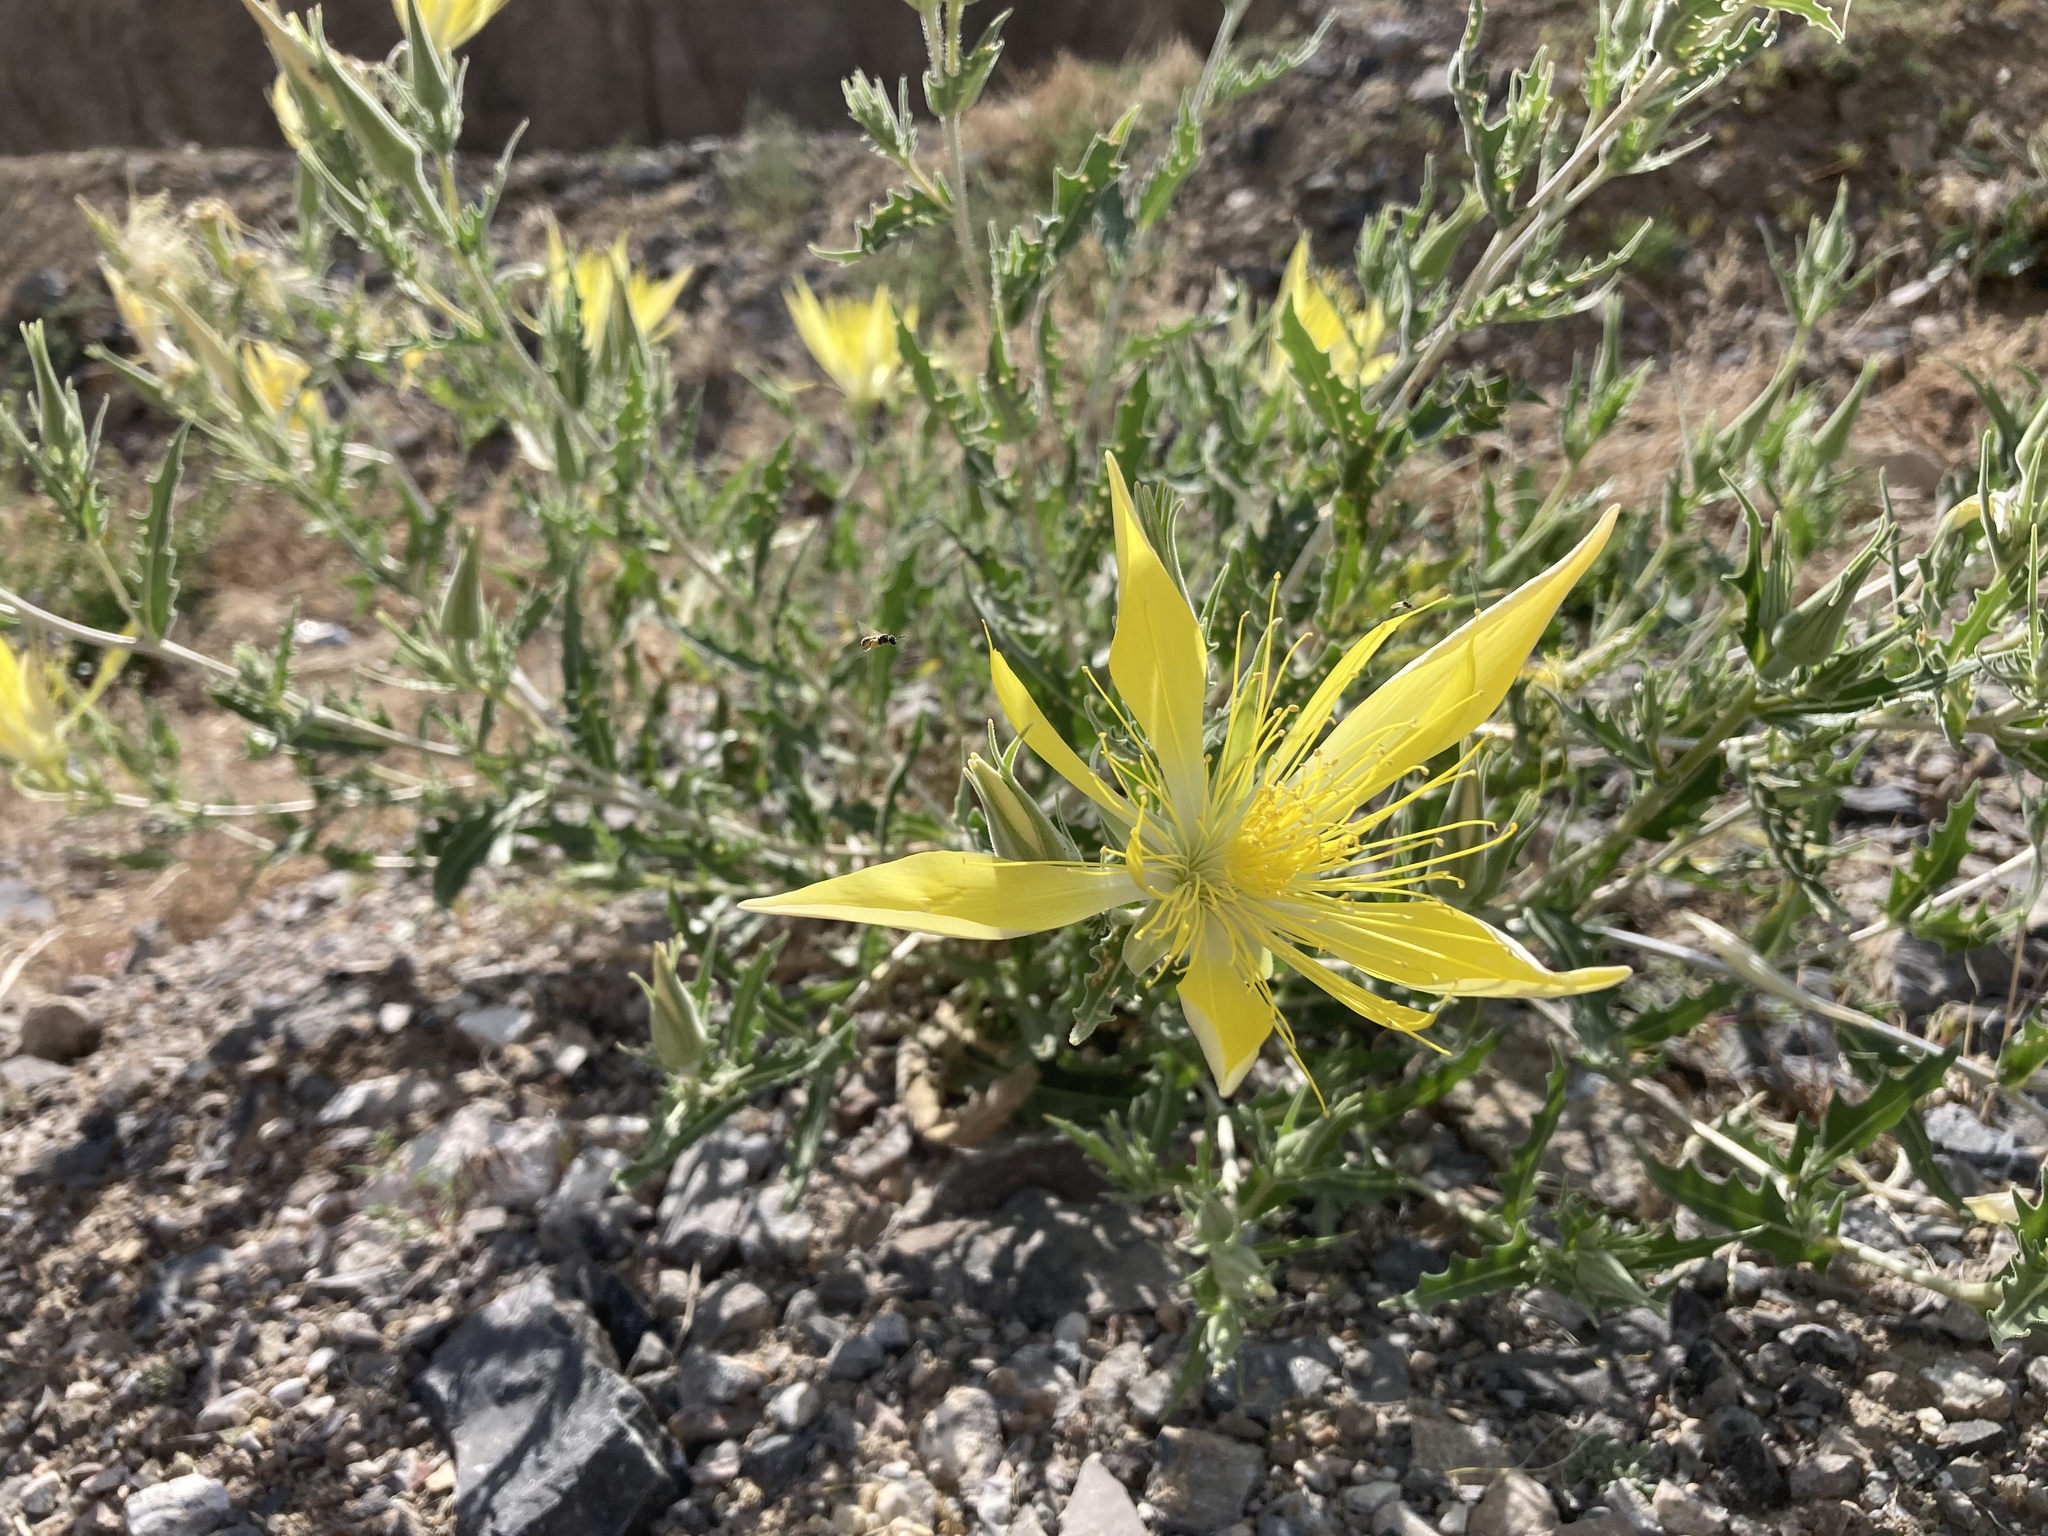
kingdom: Plantae
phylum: Tracheophyta
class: Magnoliopsida
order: Cornales
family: Loasaceae
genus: Mentzelia
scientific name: Mentzelia laevicaulis
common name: Smooth-stem blazingstar
